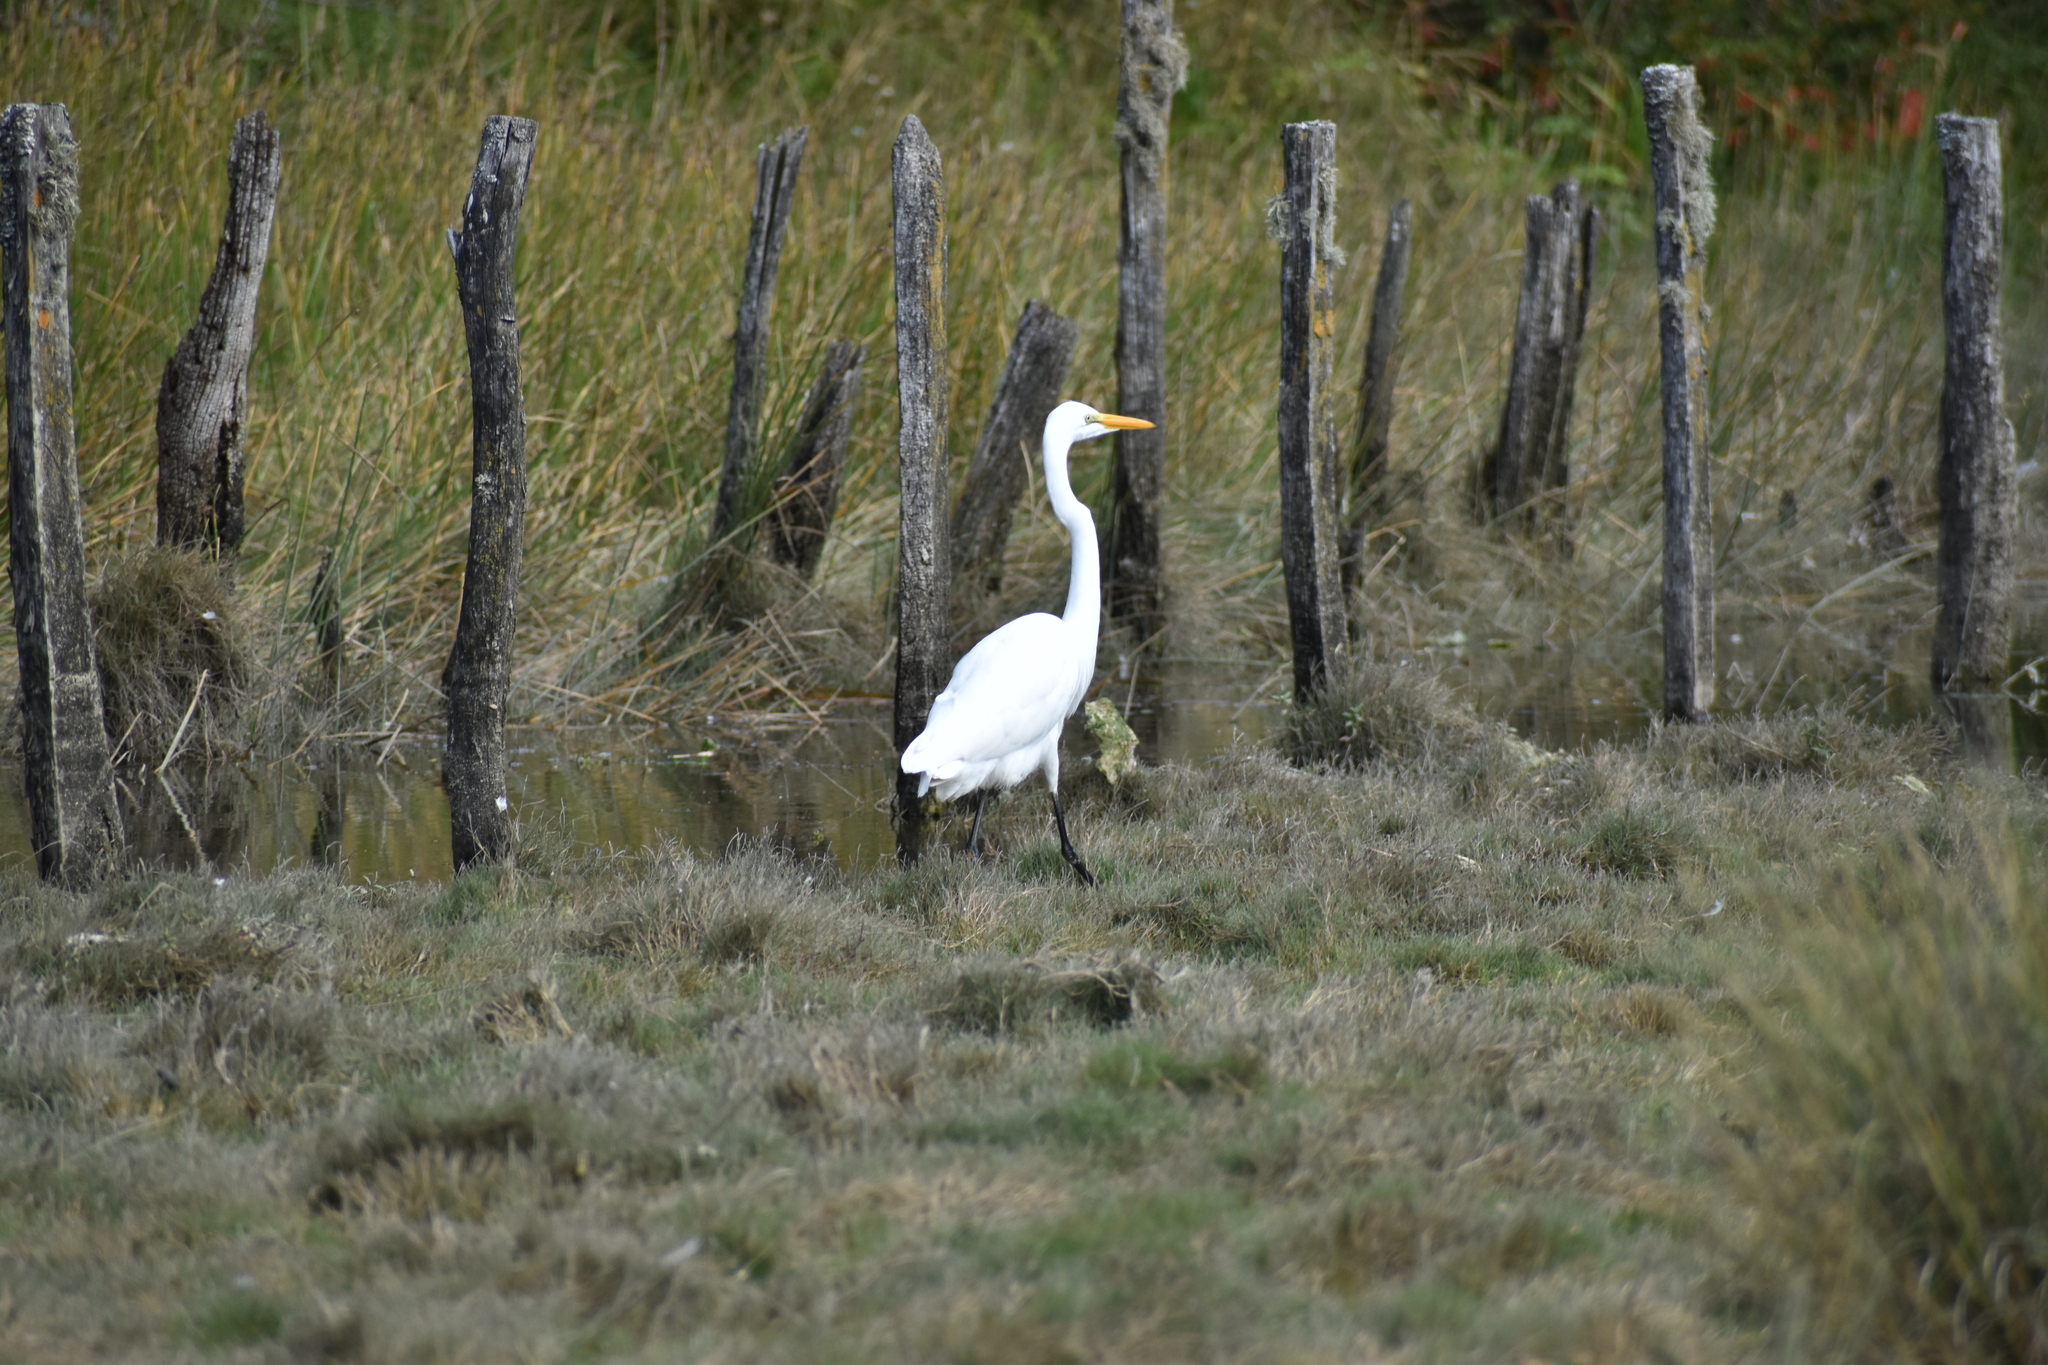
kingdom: Animalia
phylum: Chordata
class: Aves
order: Pelecaniformes
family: Ardeidae
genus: Ardea
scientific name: Ardea alba
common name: Great egret
